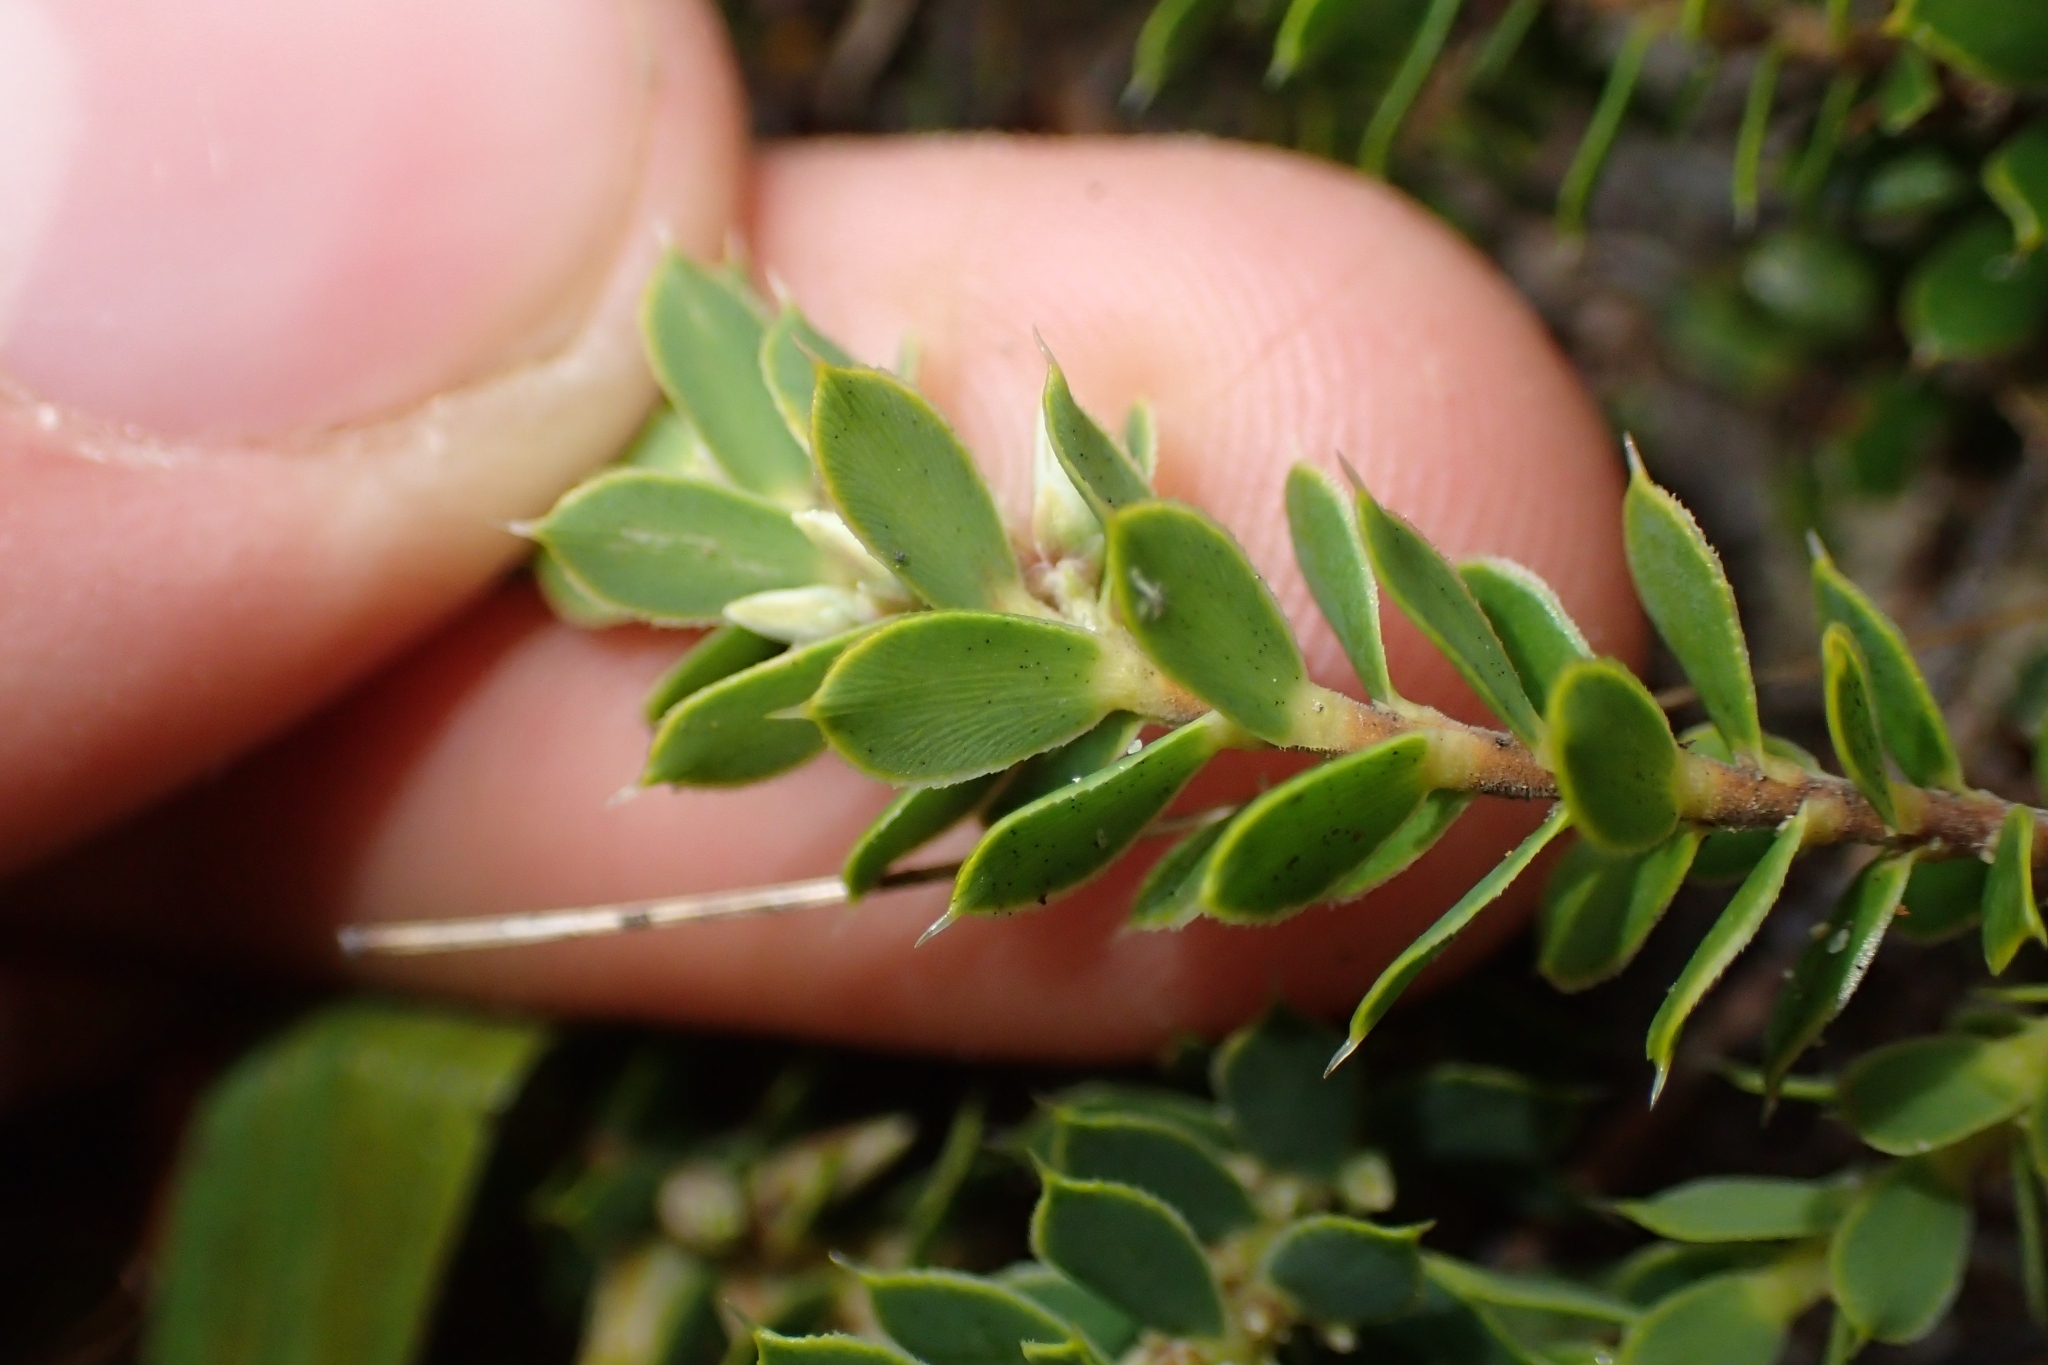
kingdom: Plantae
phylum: Tracheophyta
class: Magnoliopsida
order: Ericales
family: Ericaceae
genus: Styphelia
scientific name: Styphelia nesophila
